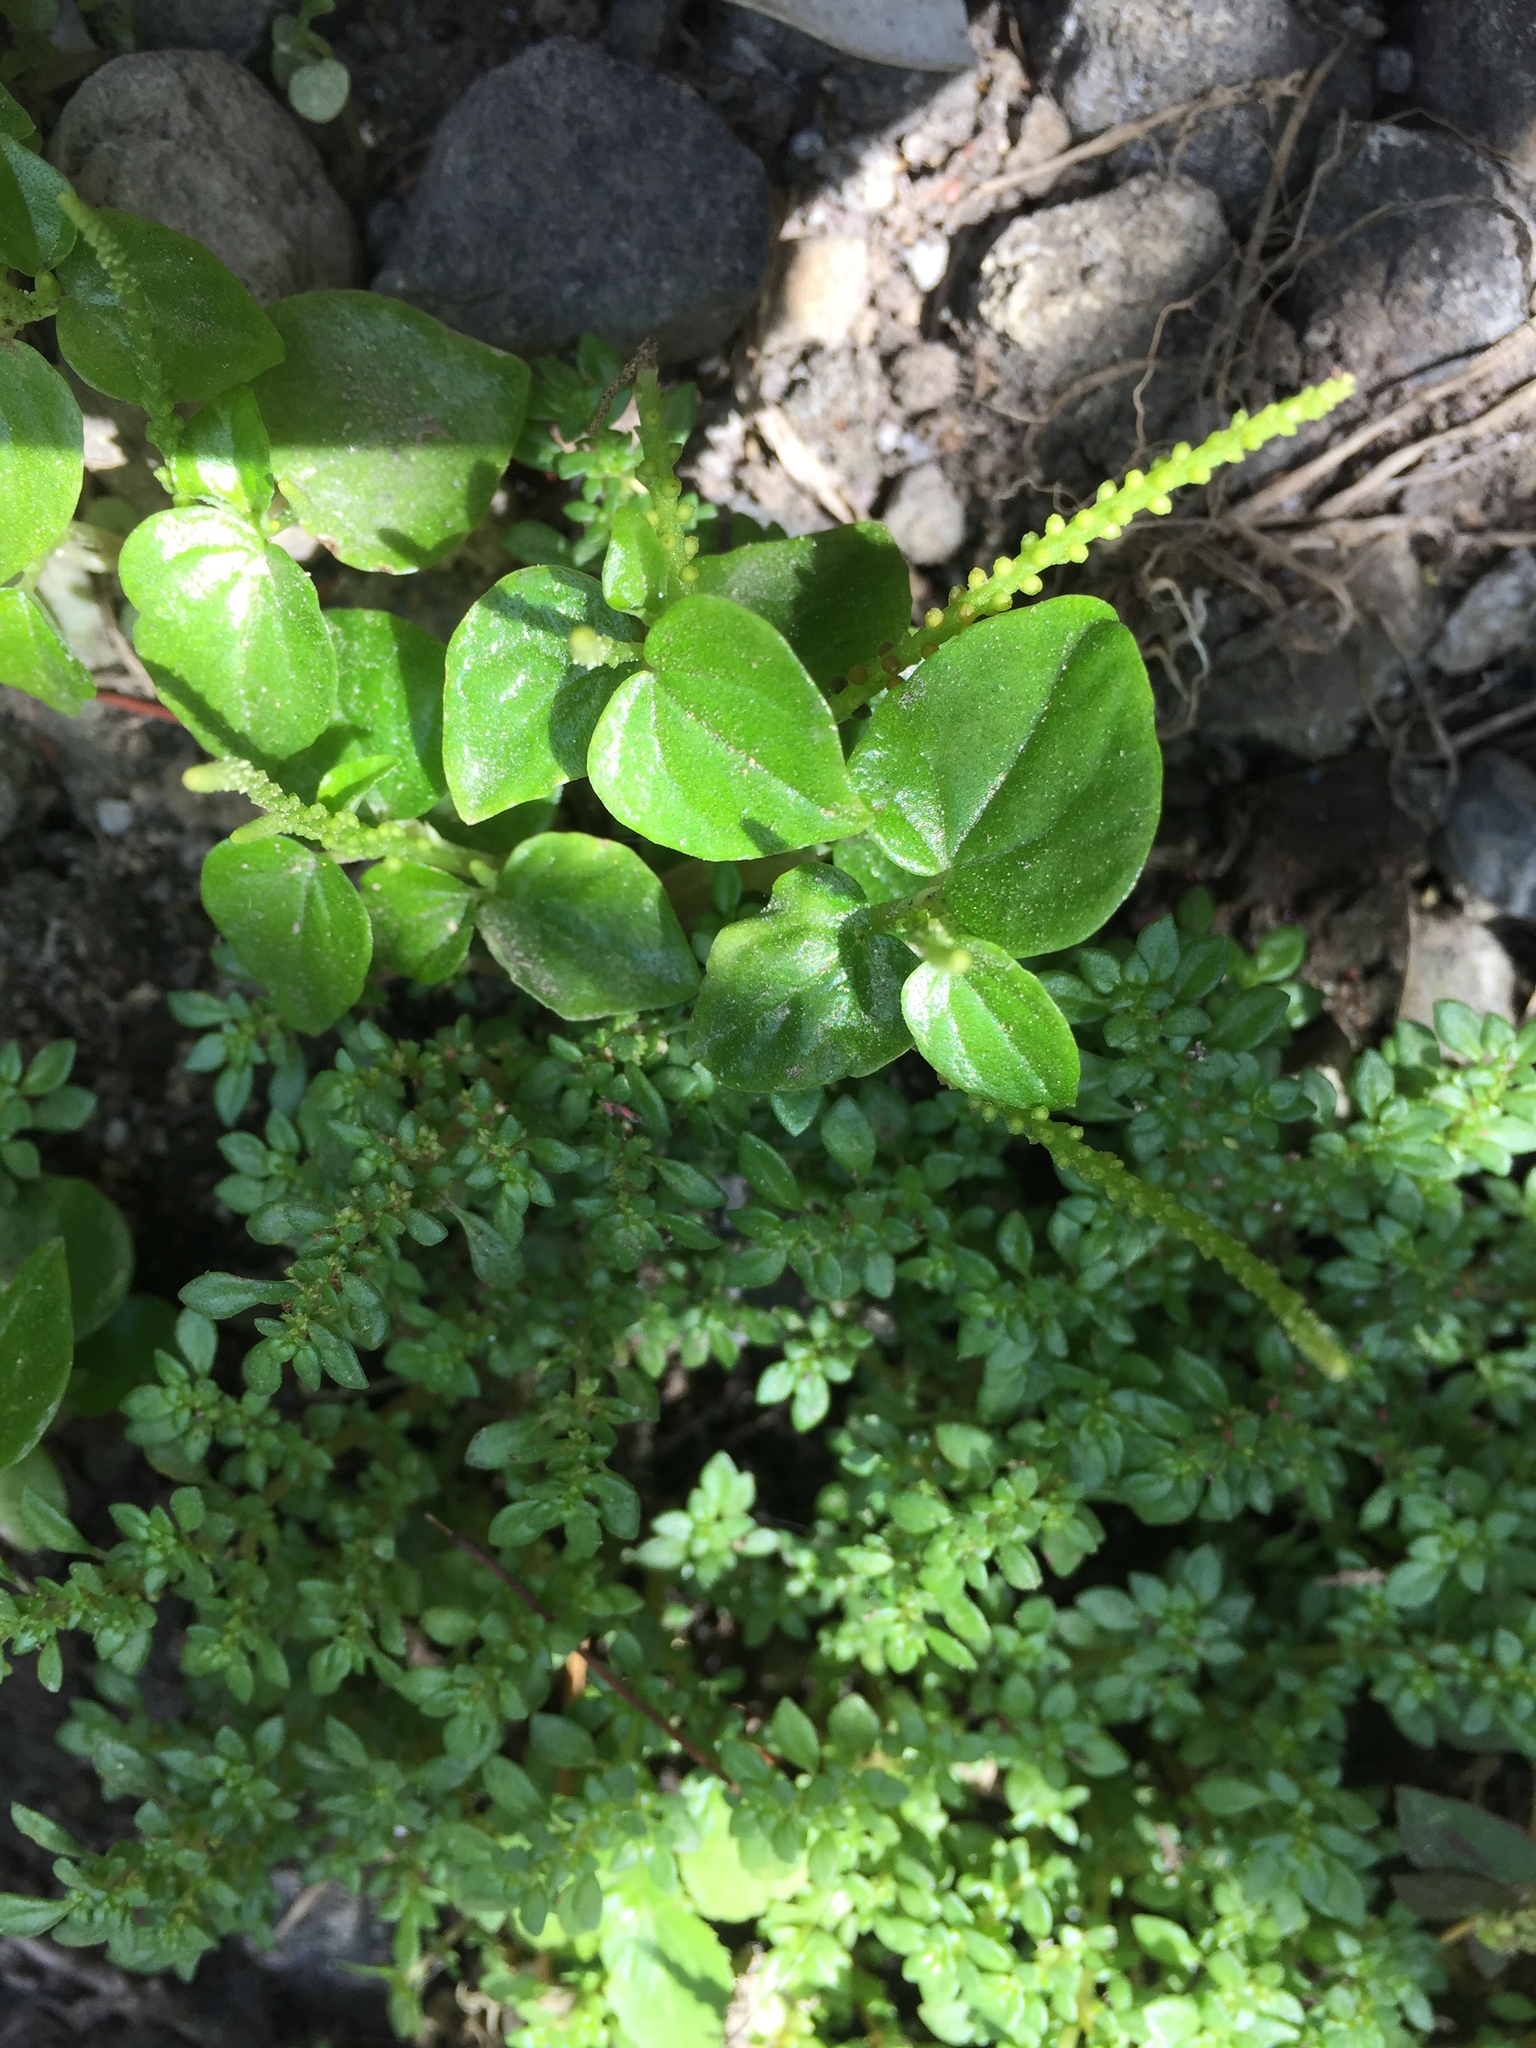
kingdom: Plantae
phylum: Tracheophyta
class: Magnoliopsida
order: Piperales
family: Piperaceae
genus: Peperomia
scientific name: Peperomia pellucida
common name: Man to man
